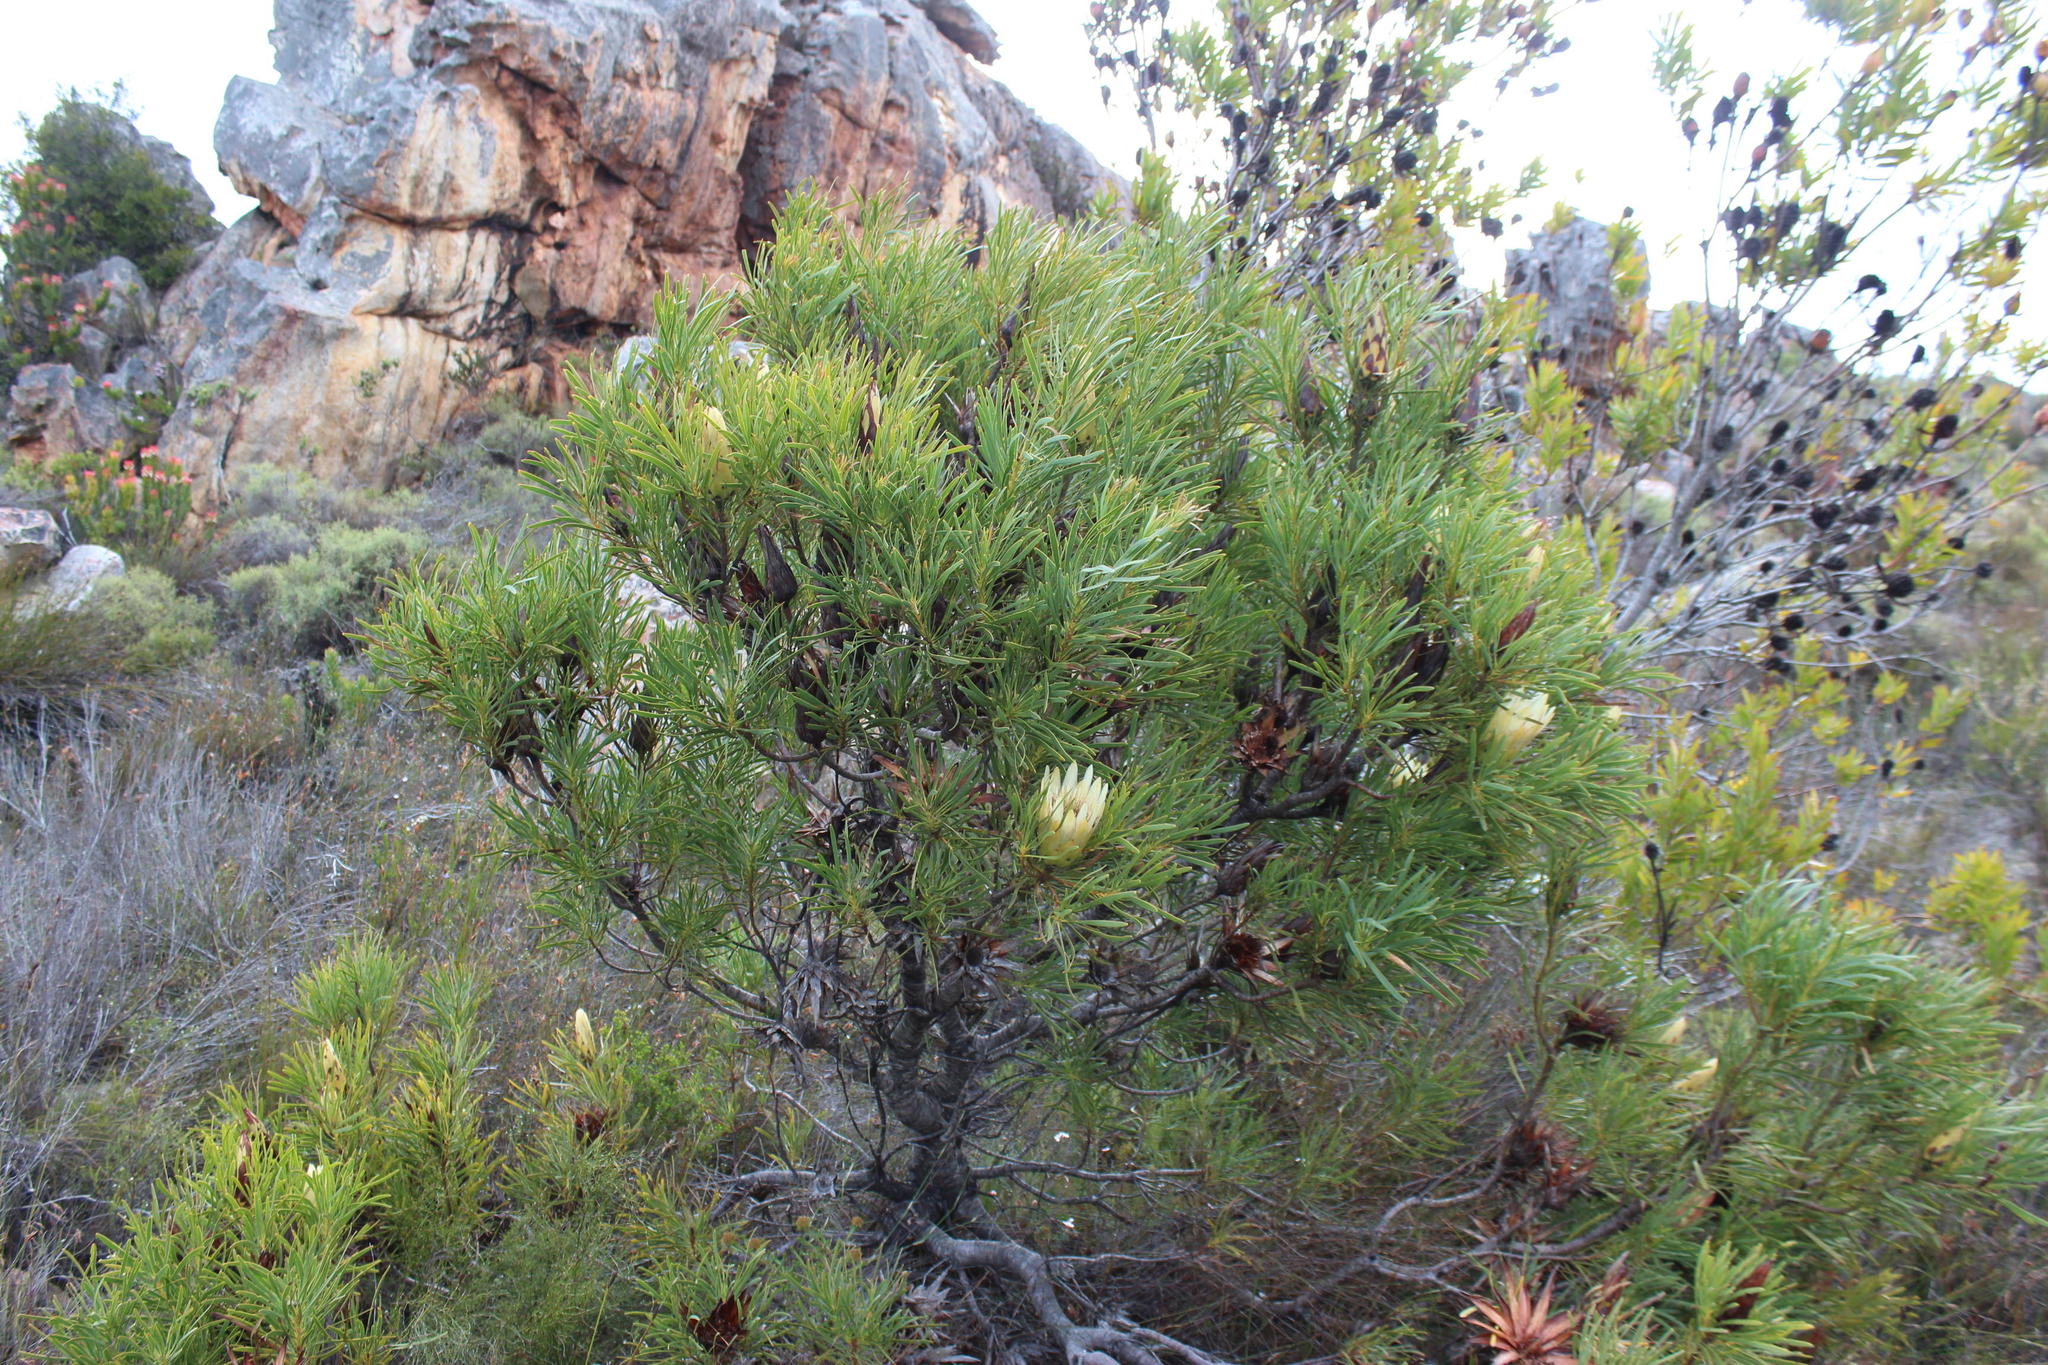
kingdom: Plantae
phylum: Tracheophyta
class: Magnoliopsida
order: Proteales
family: Proteaceae
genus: Protea
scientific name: Protea repens
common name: Sugarbush
